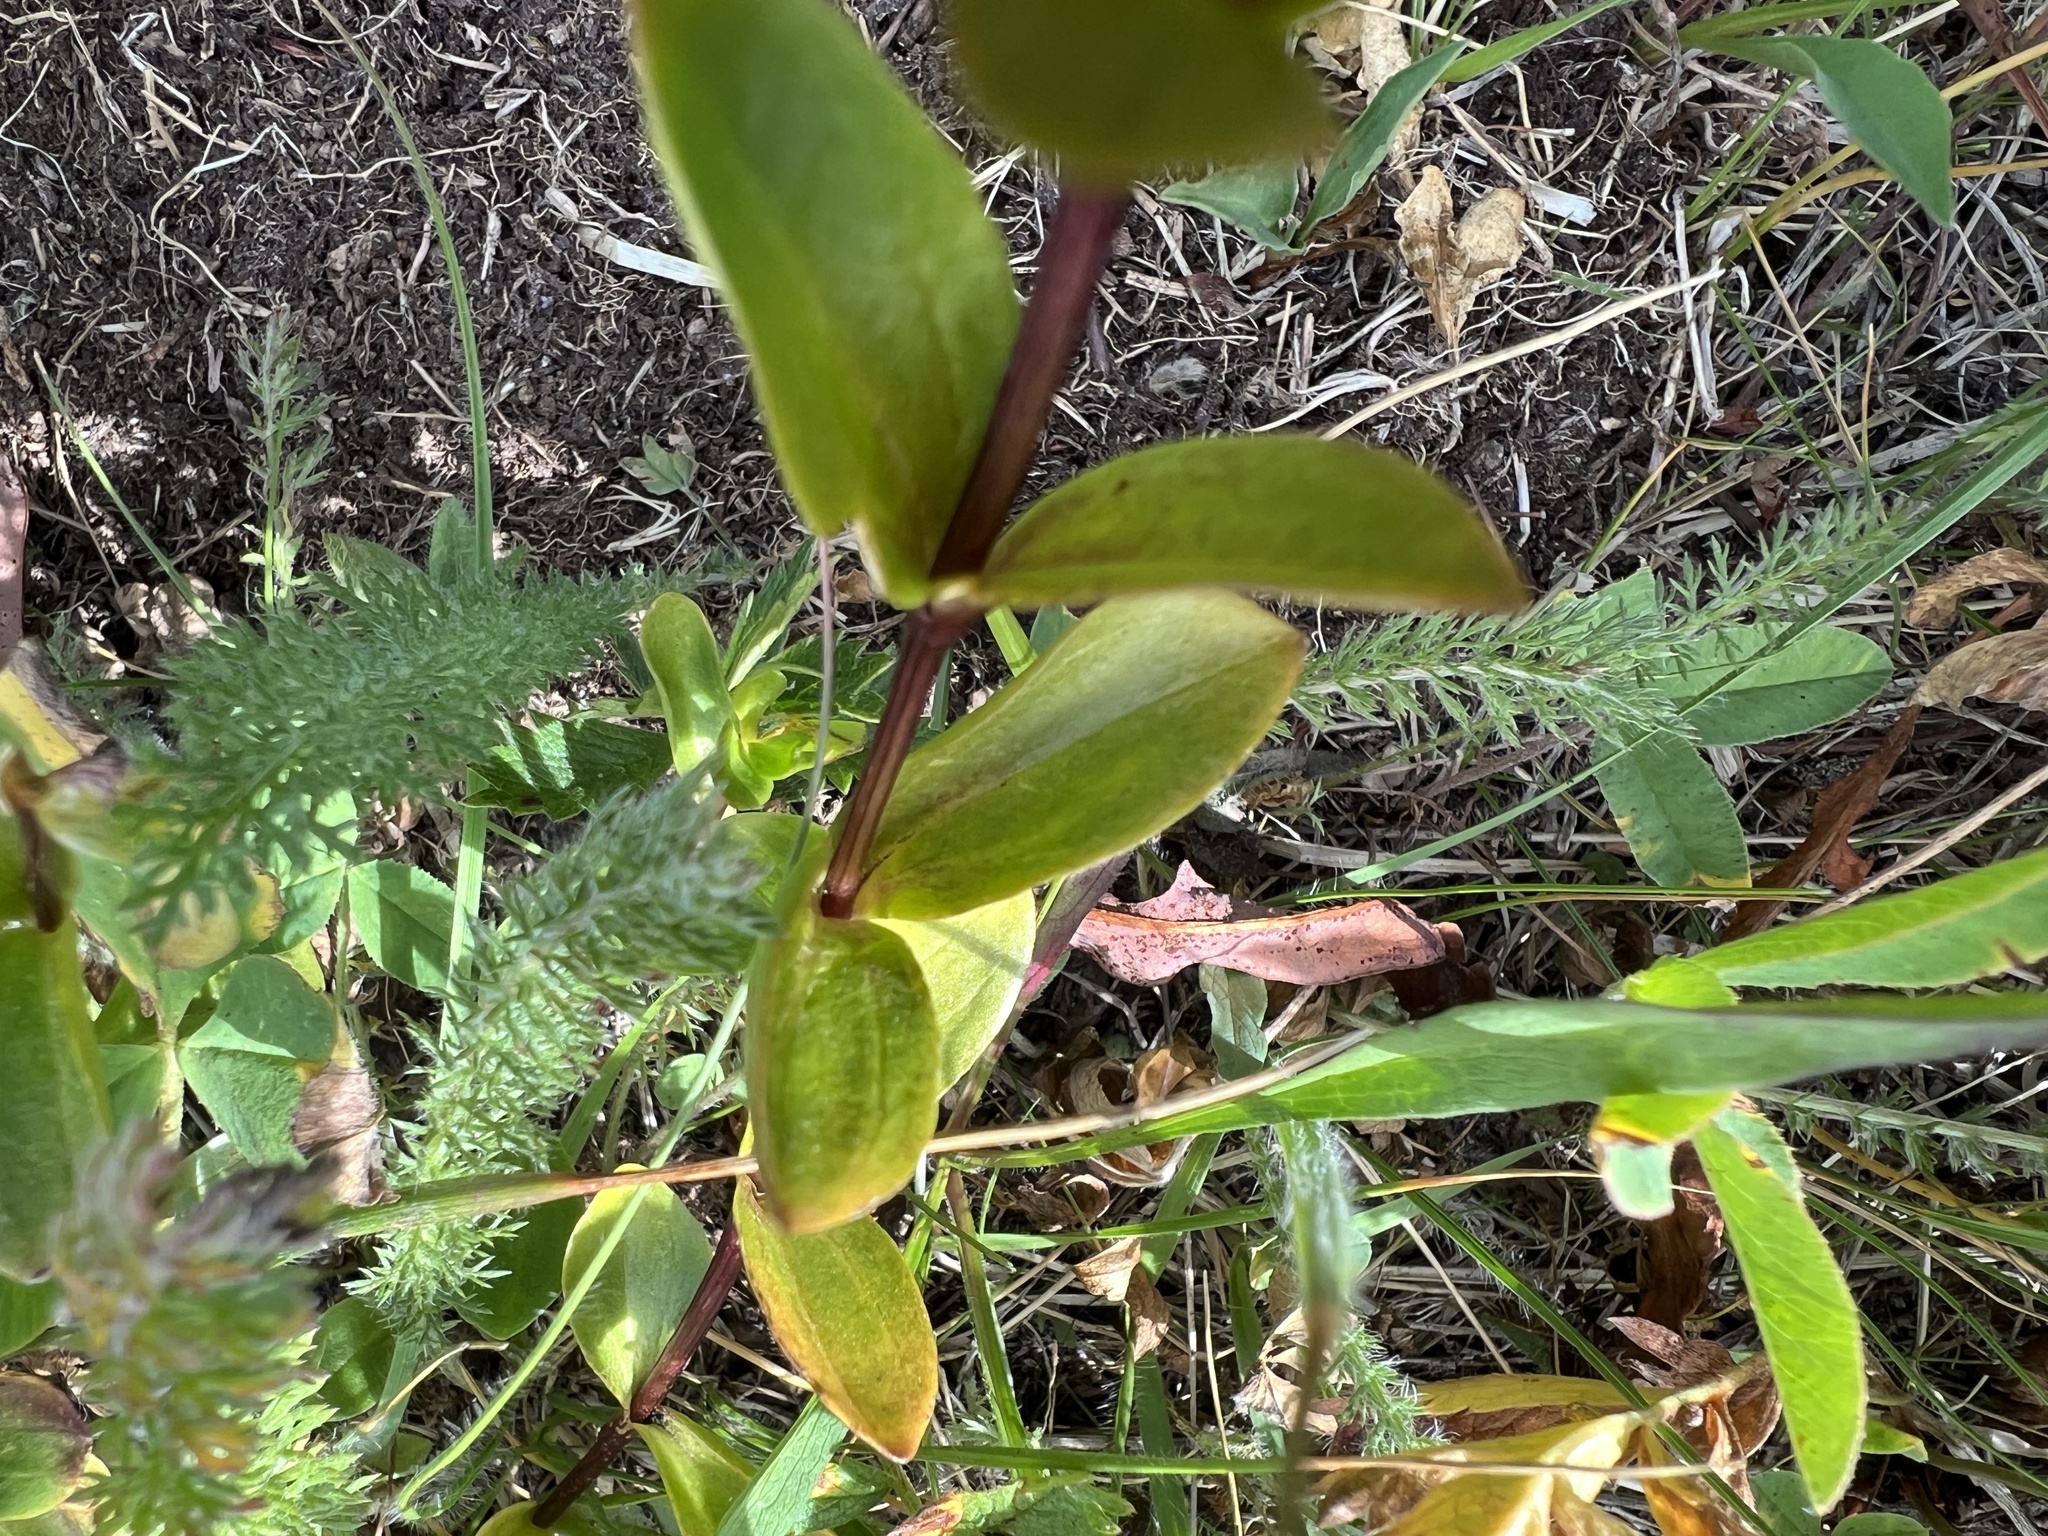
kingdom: Plantae
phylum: Tracheophyta
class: Magnoliopsida
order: Gentianales
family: Gentianaceae
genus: Gentiana
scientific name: Gentiana calycosa
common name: Rainier pleated gentian
